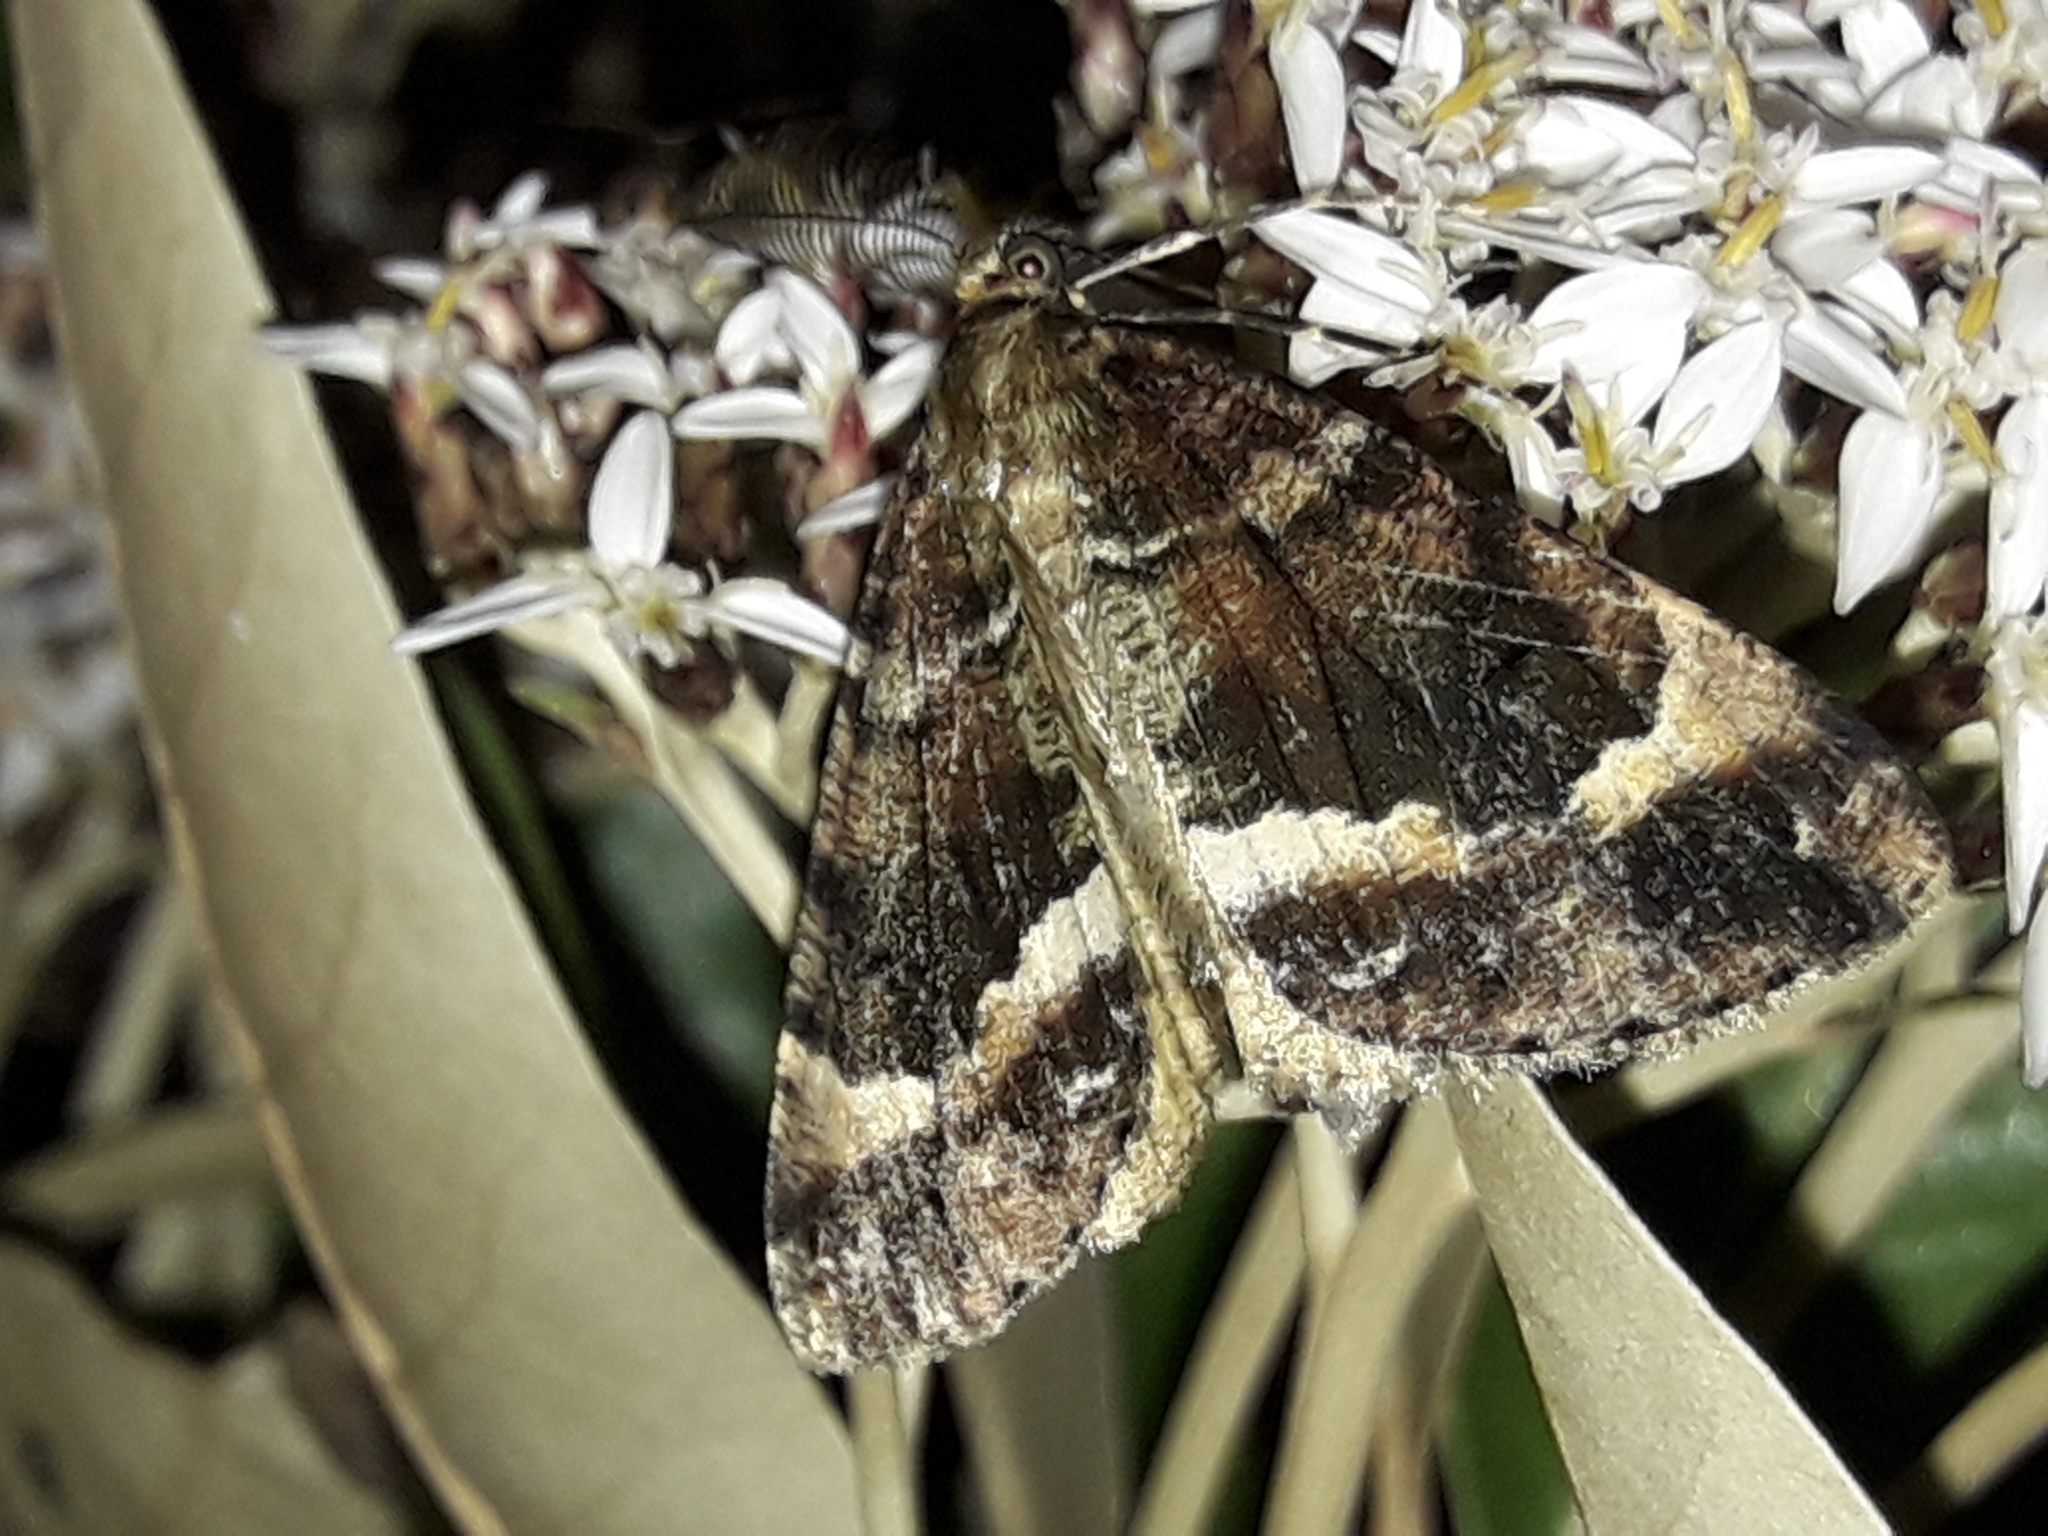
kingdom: Animalia
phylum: Arthropoda
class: Insecta
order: Lepidoptera
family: Geometridae
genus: Pseudocoremia
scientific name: Pseudocoremia productata
